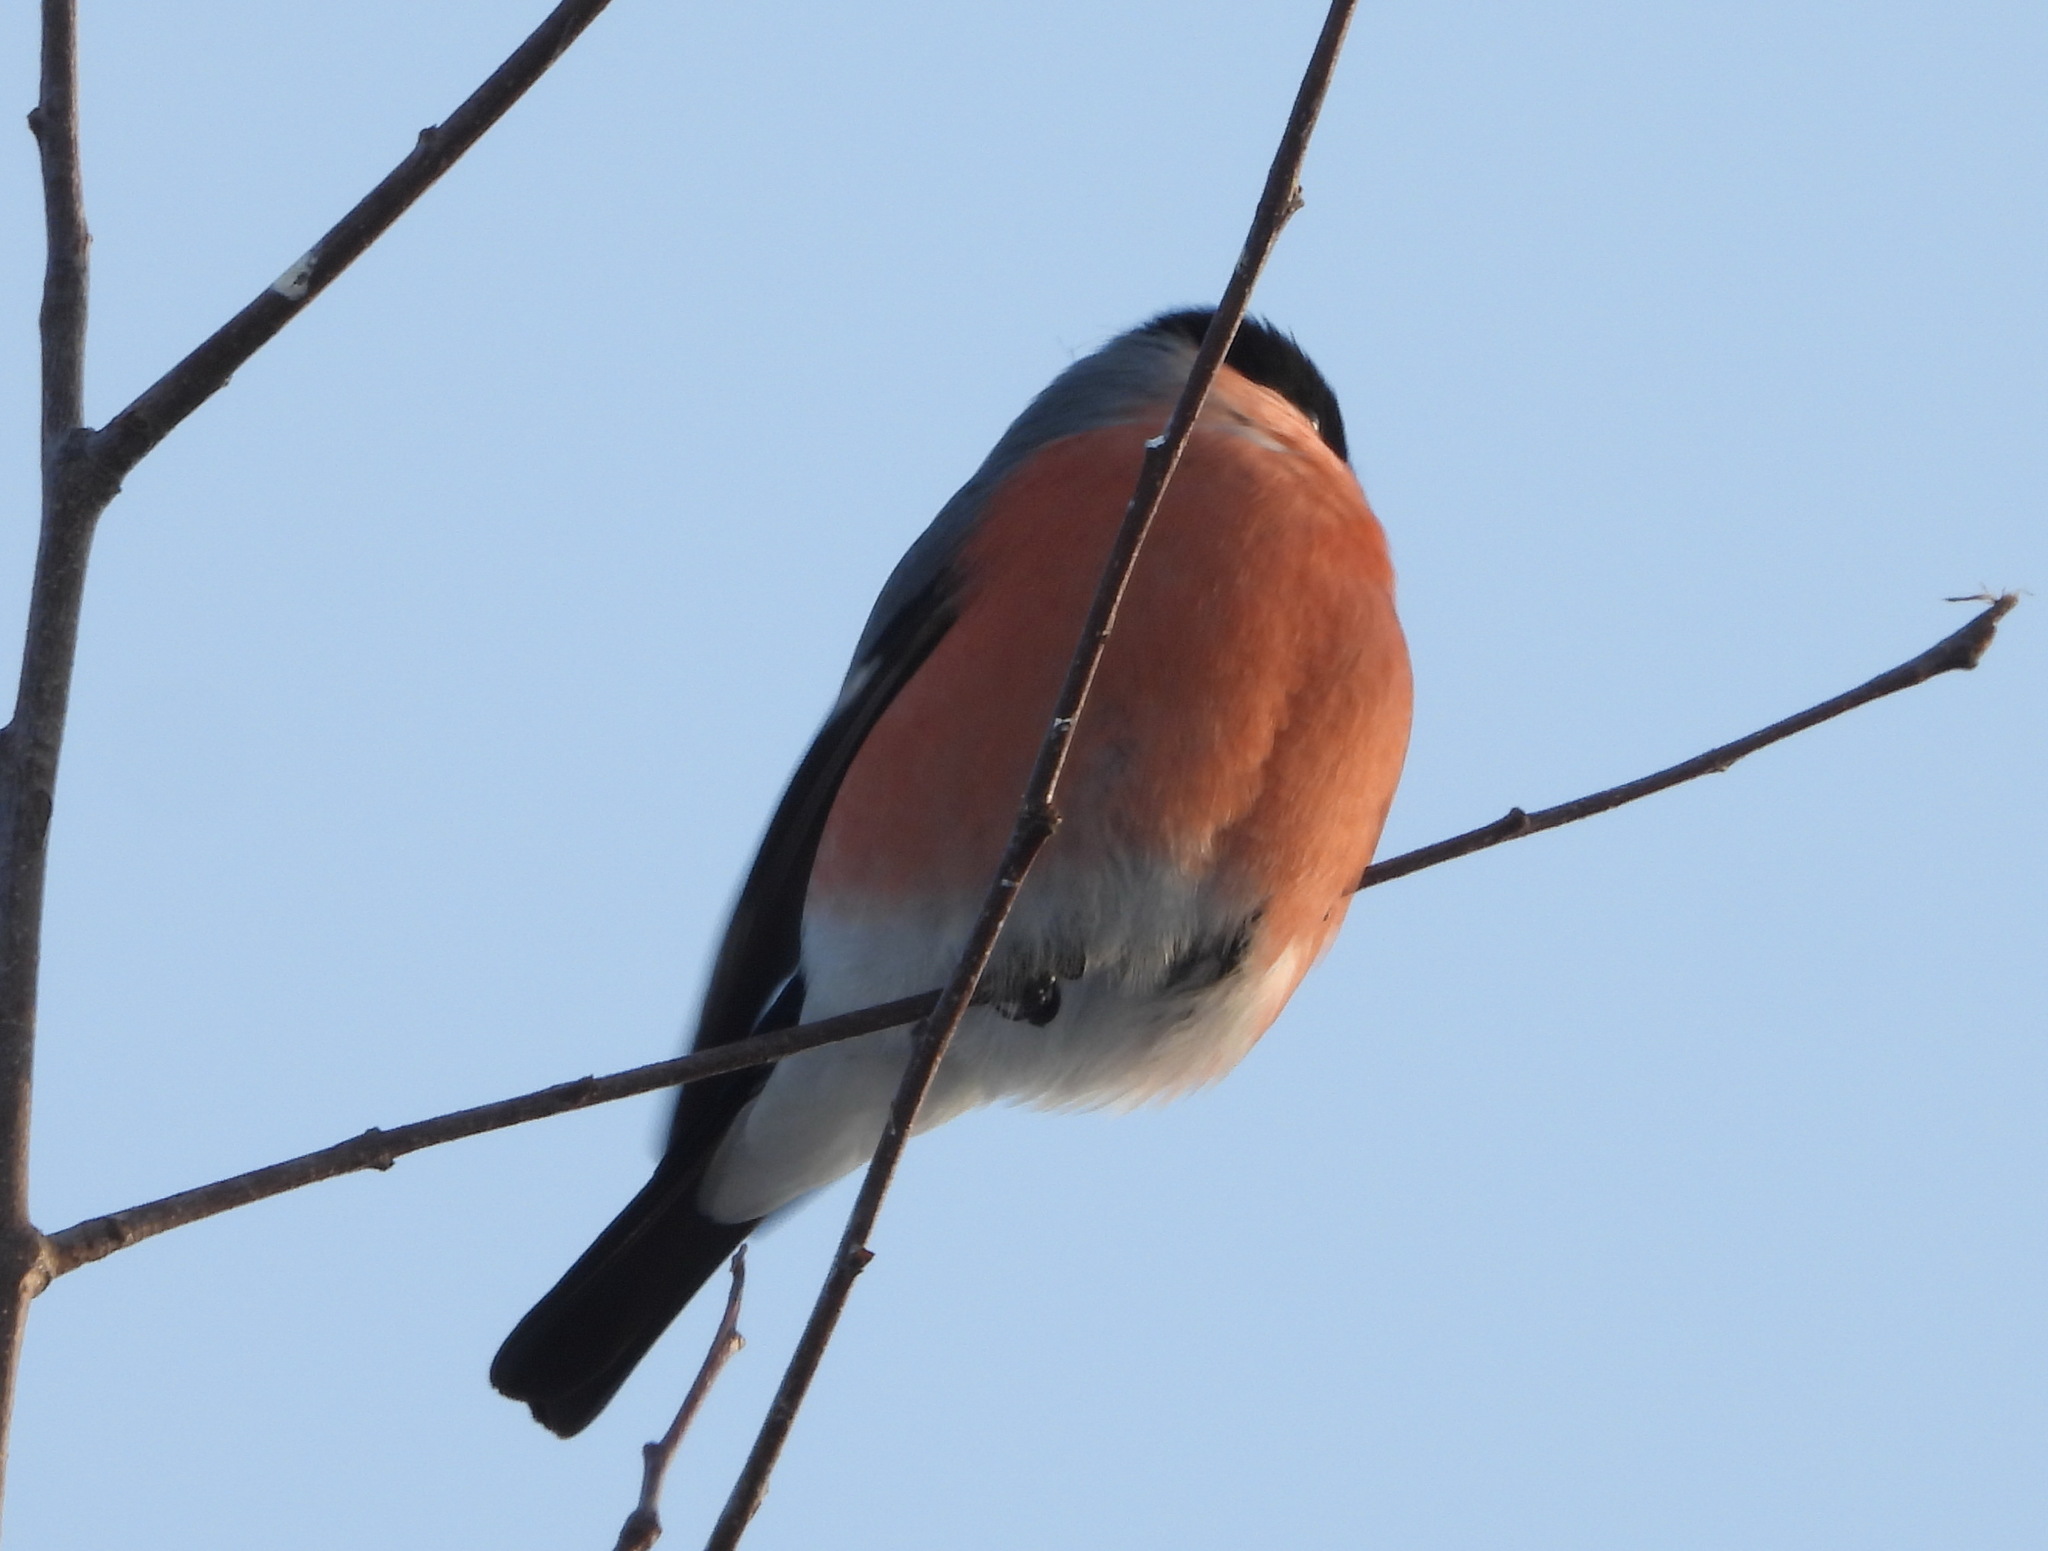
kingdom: Animalia
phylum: Chordata
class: Aves
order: Passeriformes
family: Fringillidae
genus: Pyrrhula
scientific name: Pyrrhula pyrrhula
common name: Eurasian bullfinch
